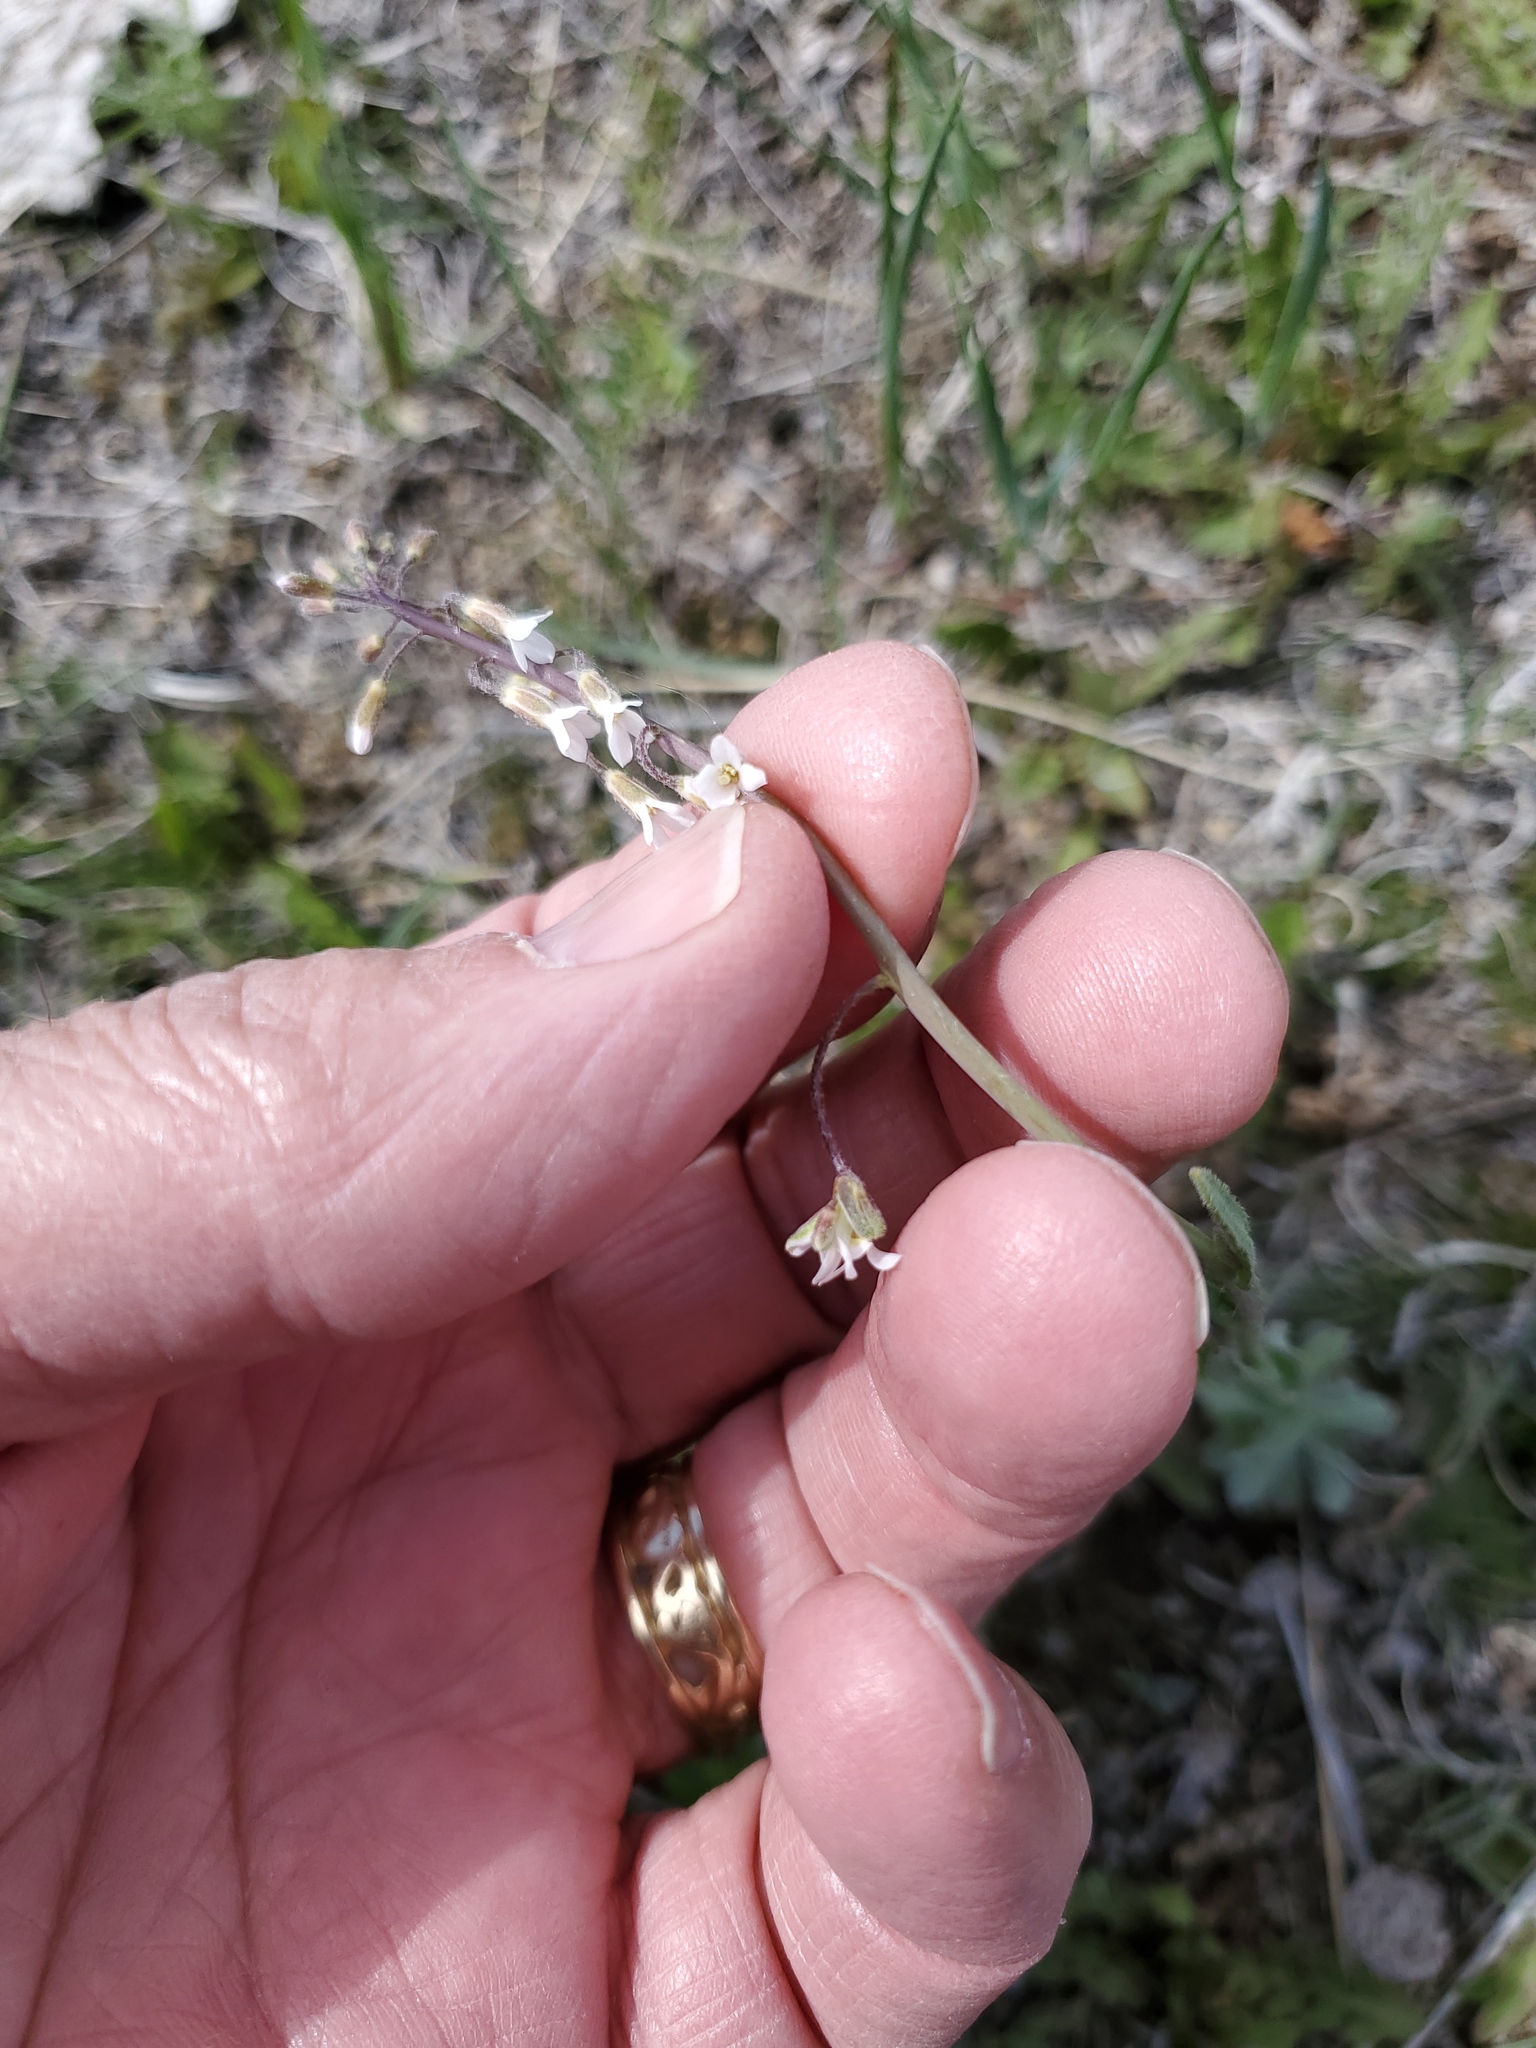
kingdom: Plantae
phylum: Tracheophyta
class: Magnoliopsida
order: Brassicales
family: Brassicaceae
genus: Boechera
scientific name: Boechera retrofracta
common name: Dangling suncress
